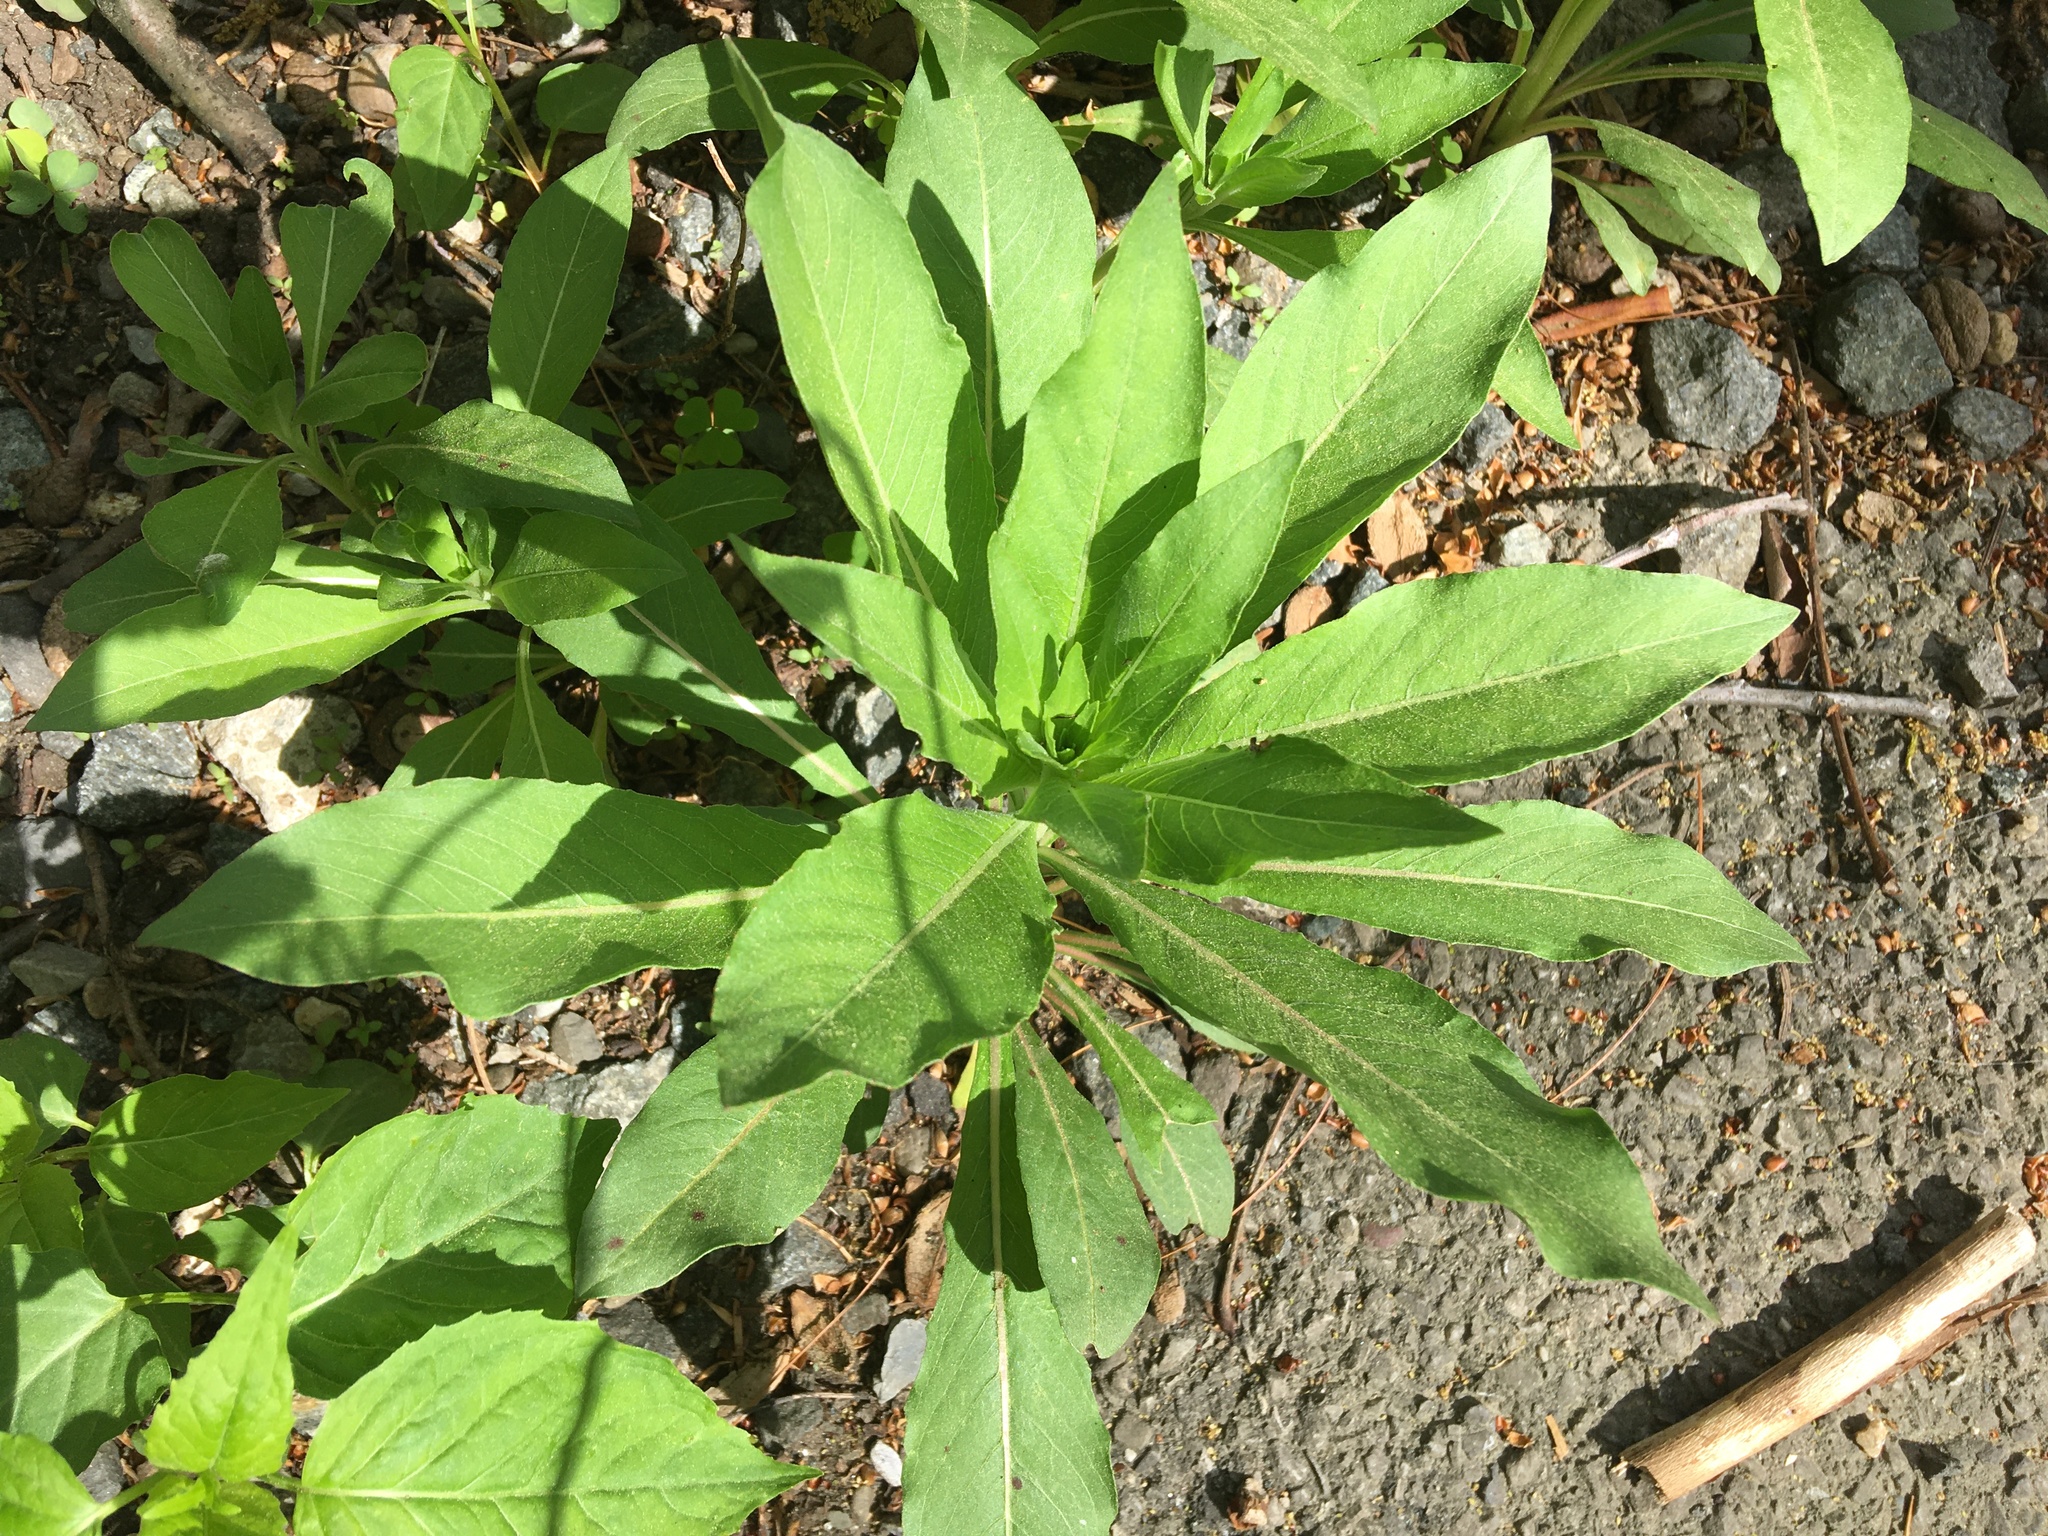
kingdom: Plantae
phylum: Tracheophyta
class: Magnoliopsida
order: Myrtales
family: Onagraceae
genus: Oenothera
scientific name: Oenothera biennis
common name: Common evening-primrose
